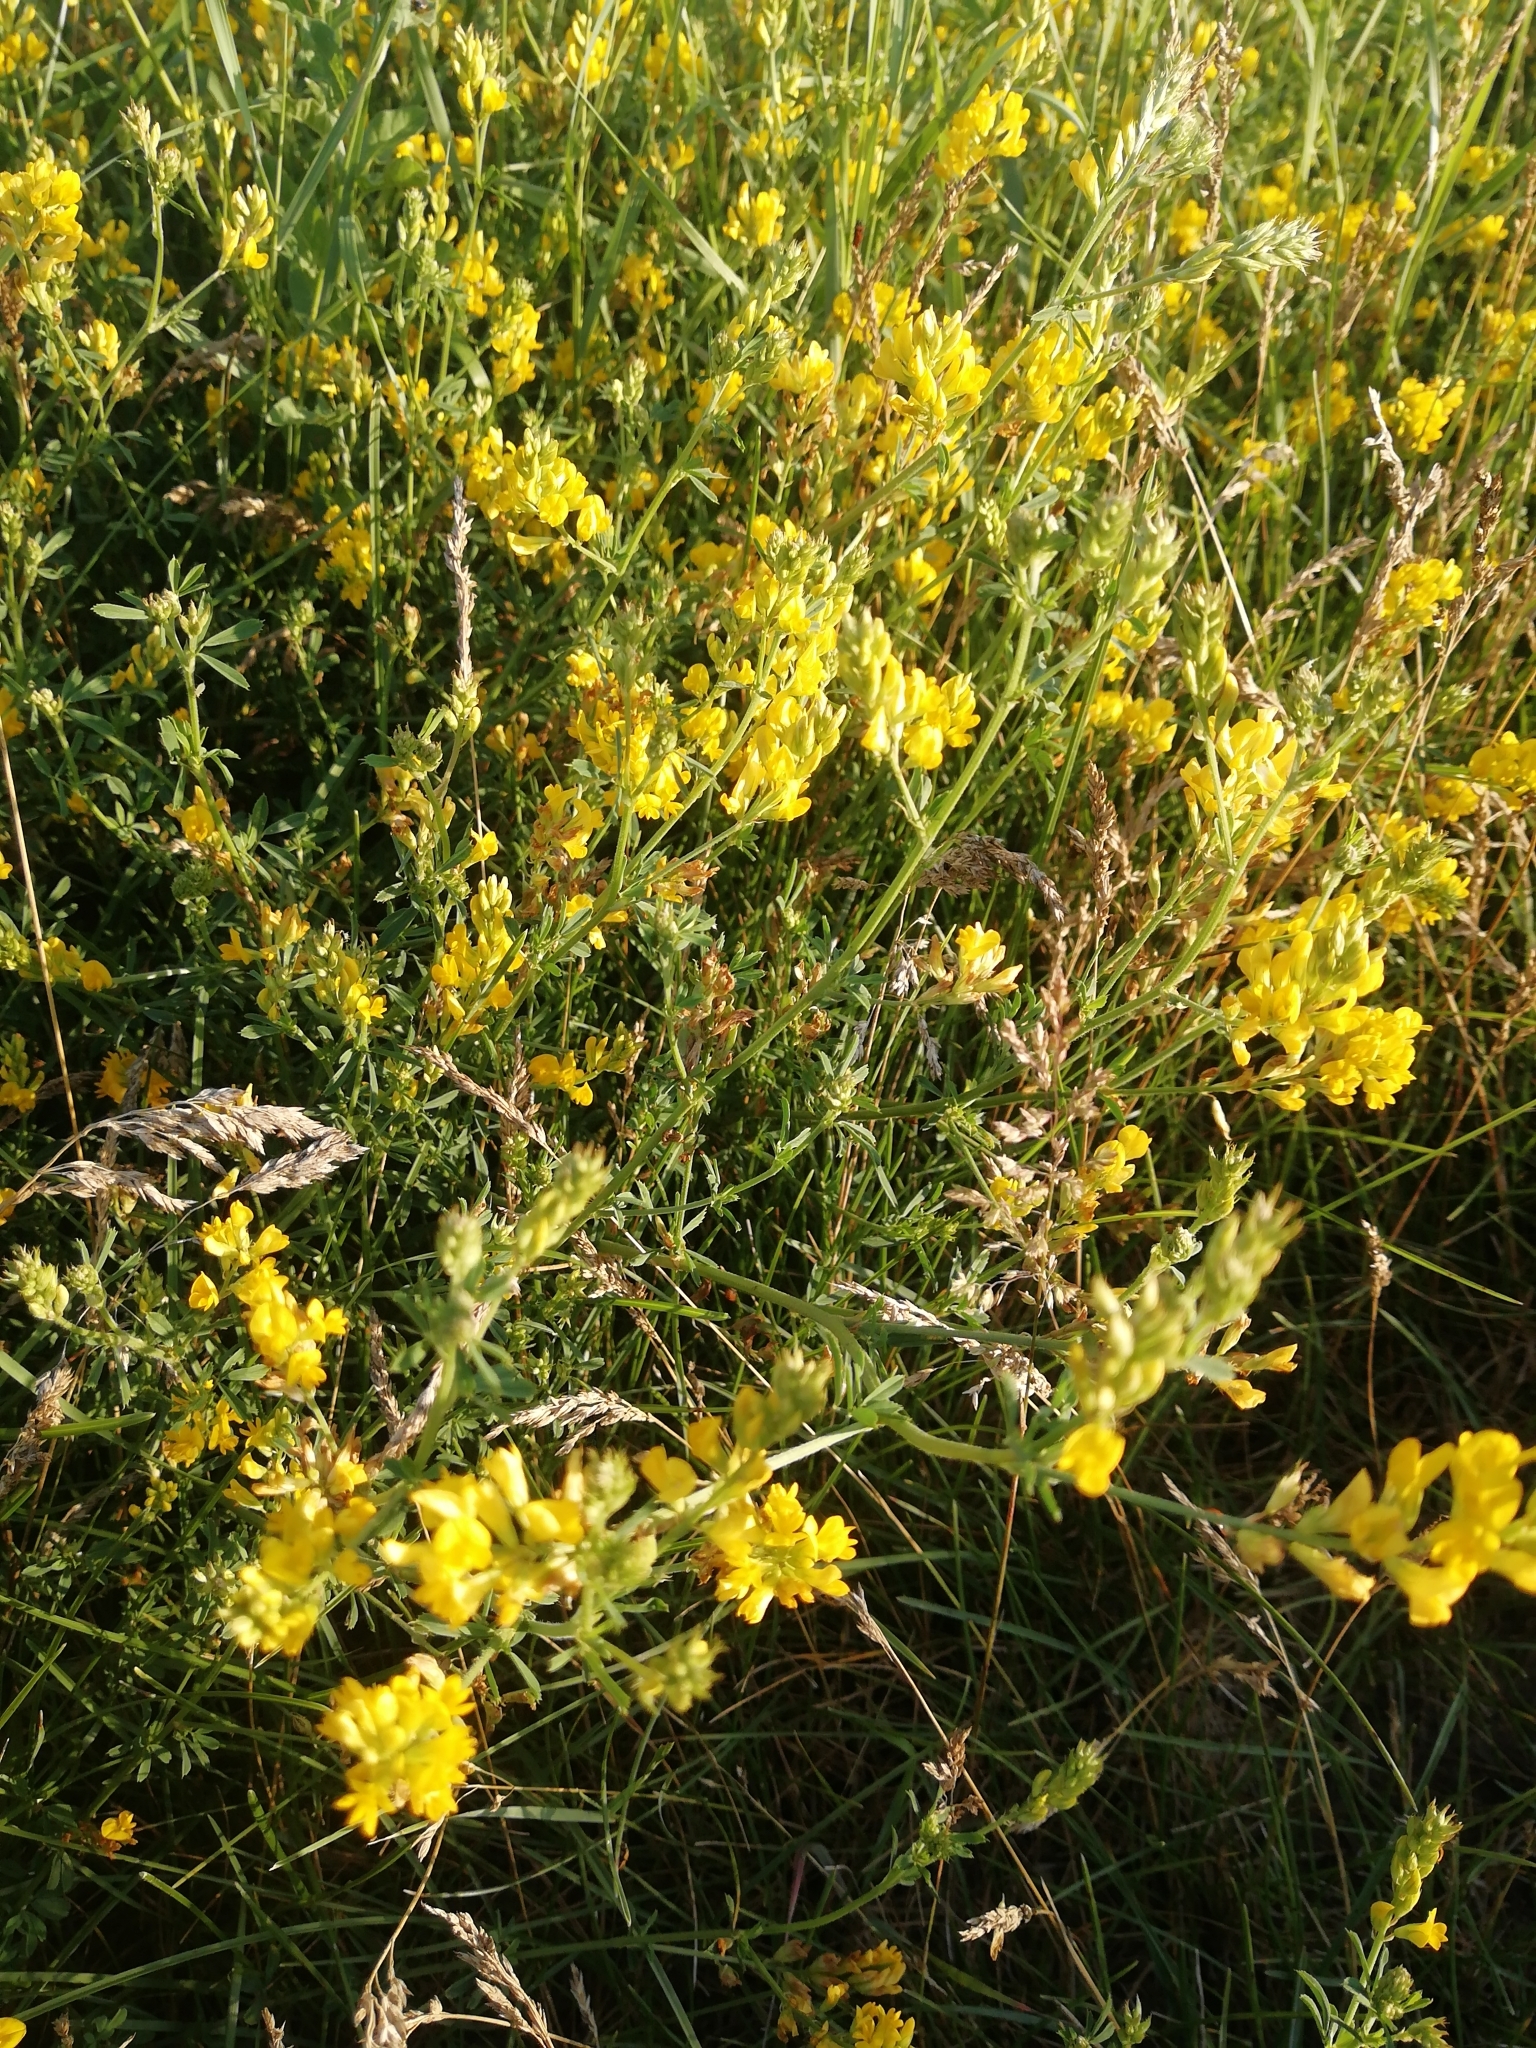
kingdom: Plantae
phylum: Tracheophyta
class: Magnoliopsida
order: Fabales
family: Fabaceae
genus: Medicago
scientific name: Medicago falcata
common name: Sickle medick
